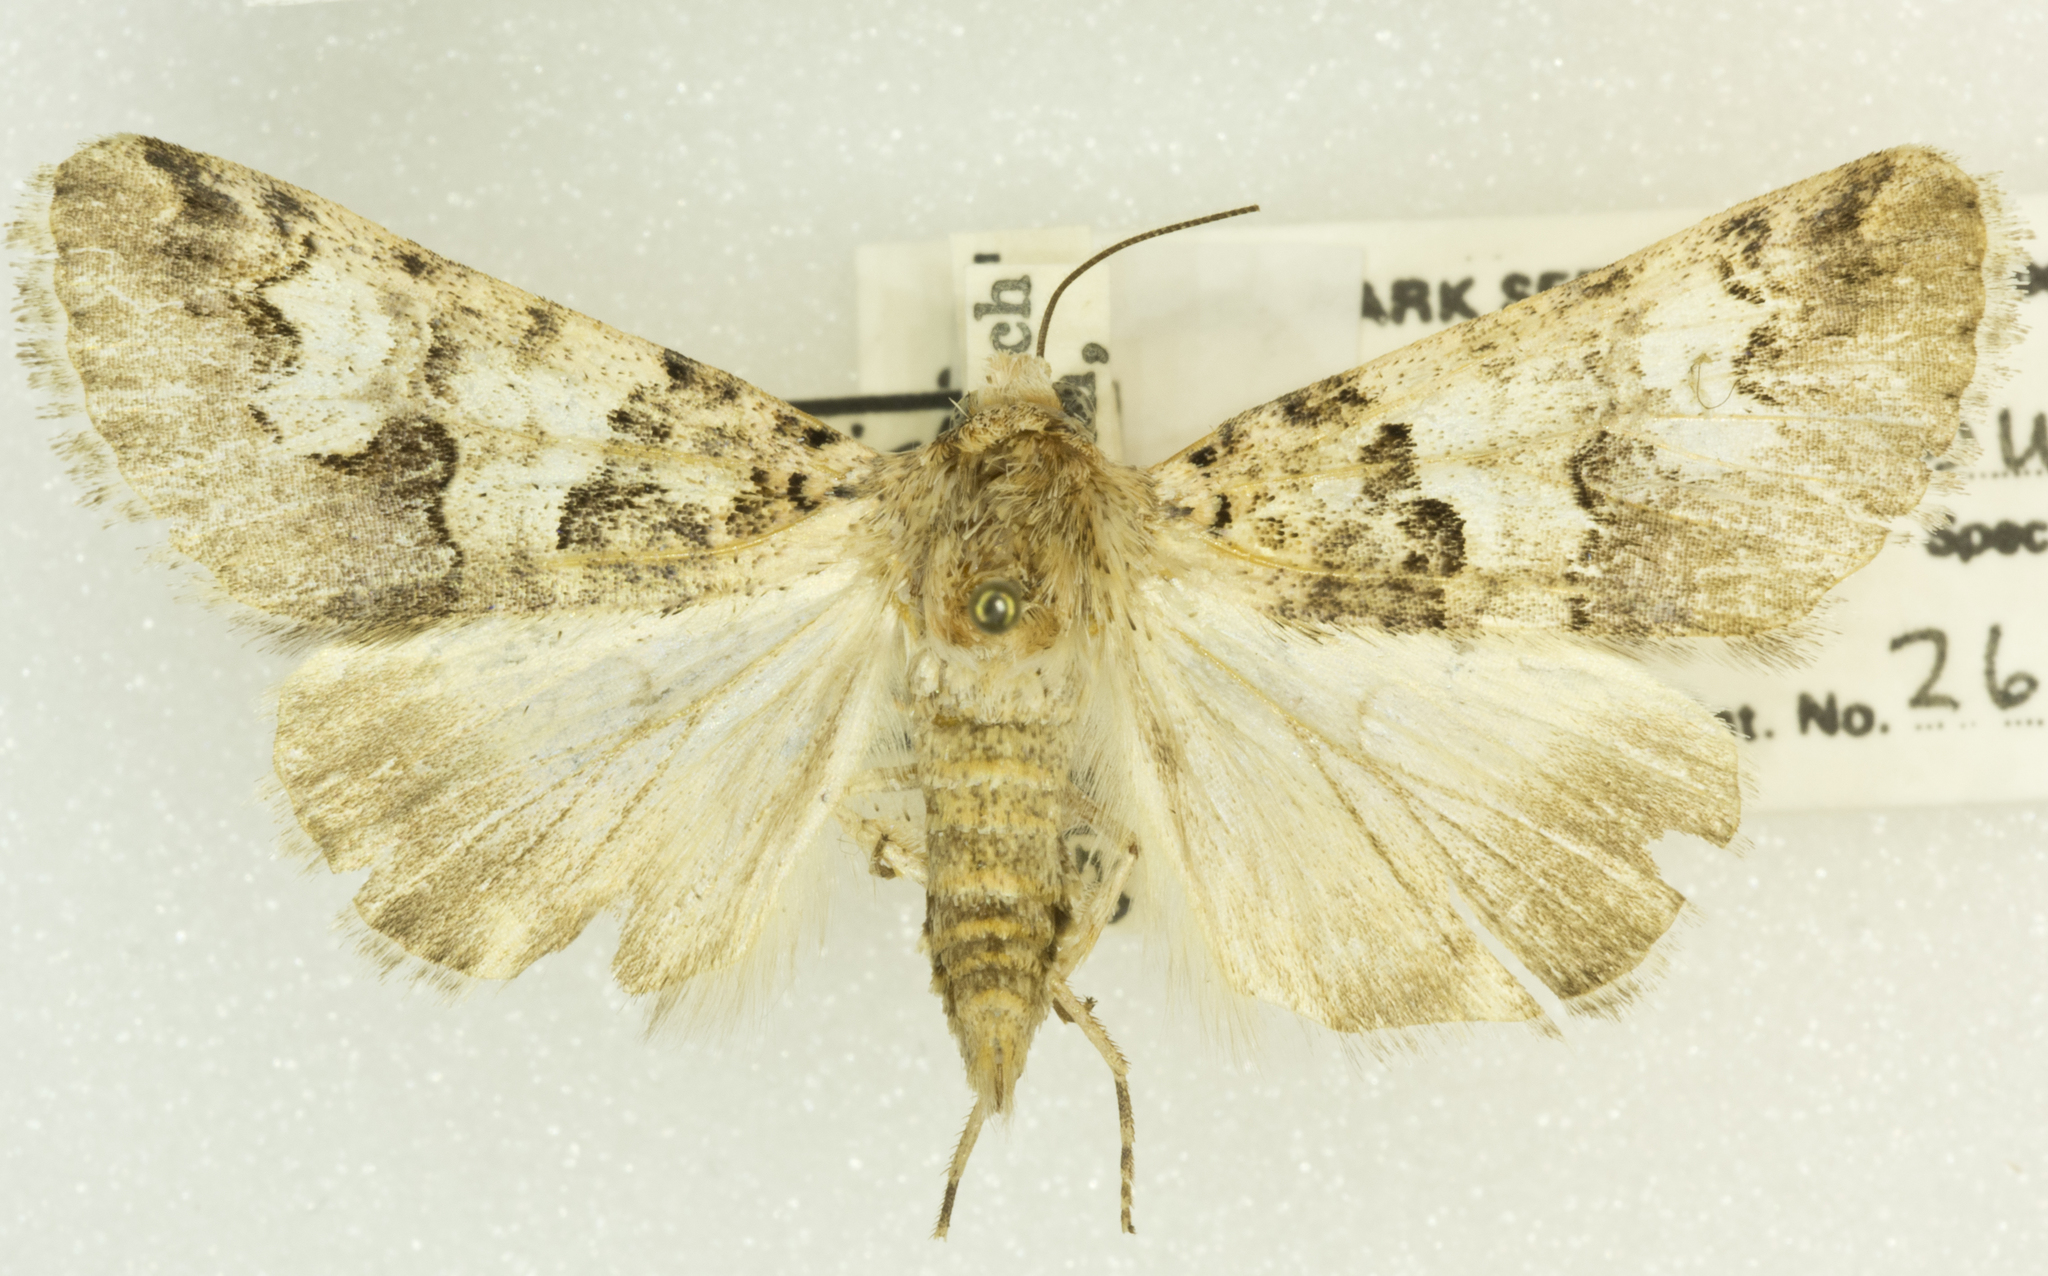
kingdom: Animalia
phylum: Arthropoda
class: Insecta
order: Lepidoptera
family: Erebidae
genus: Drasteria
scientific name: Drasteria sabulosa
